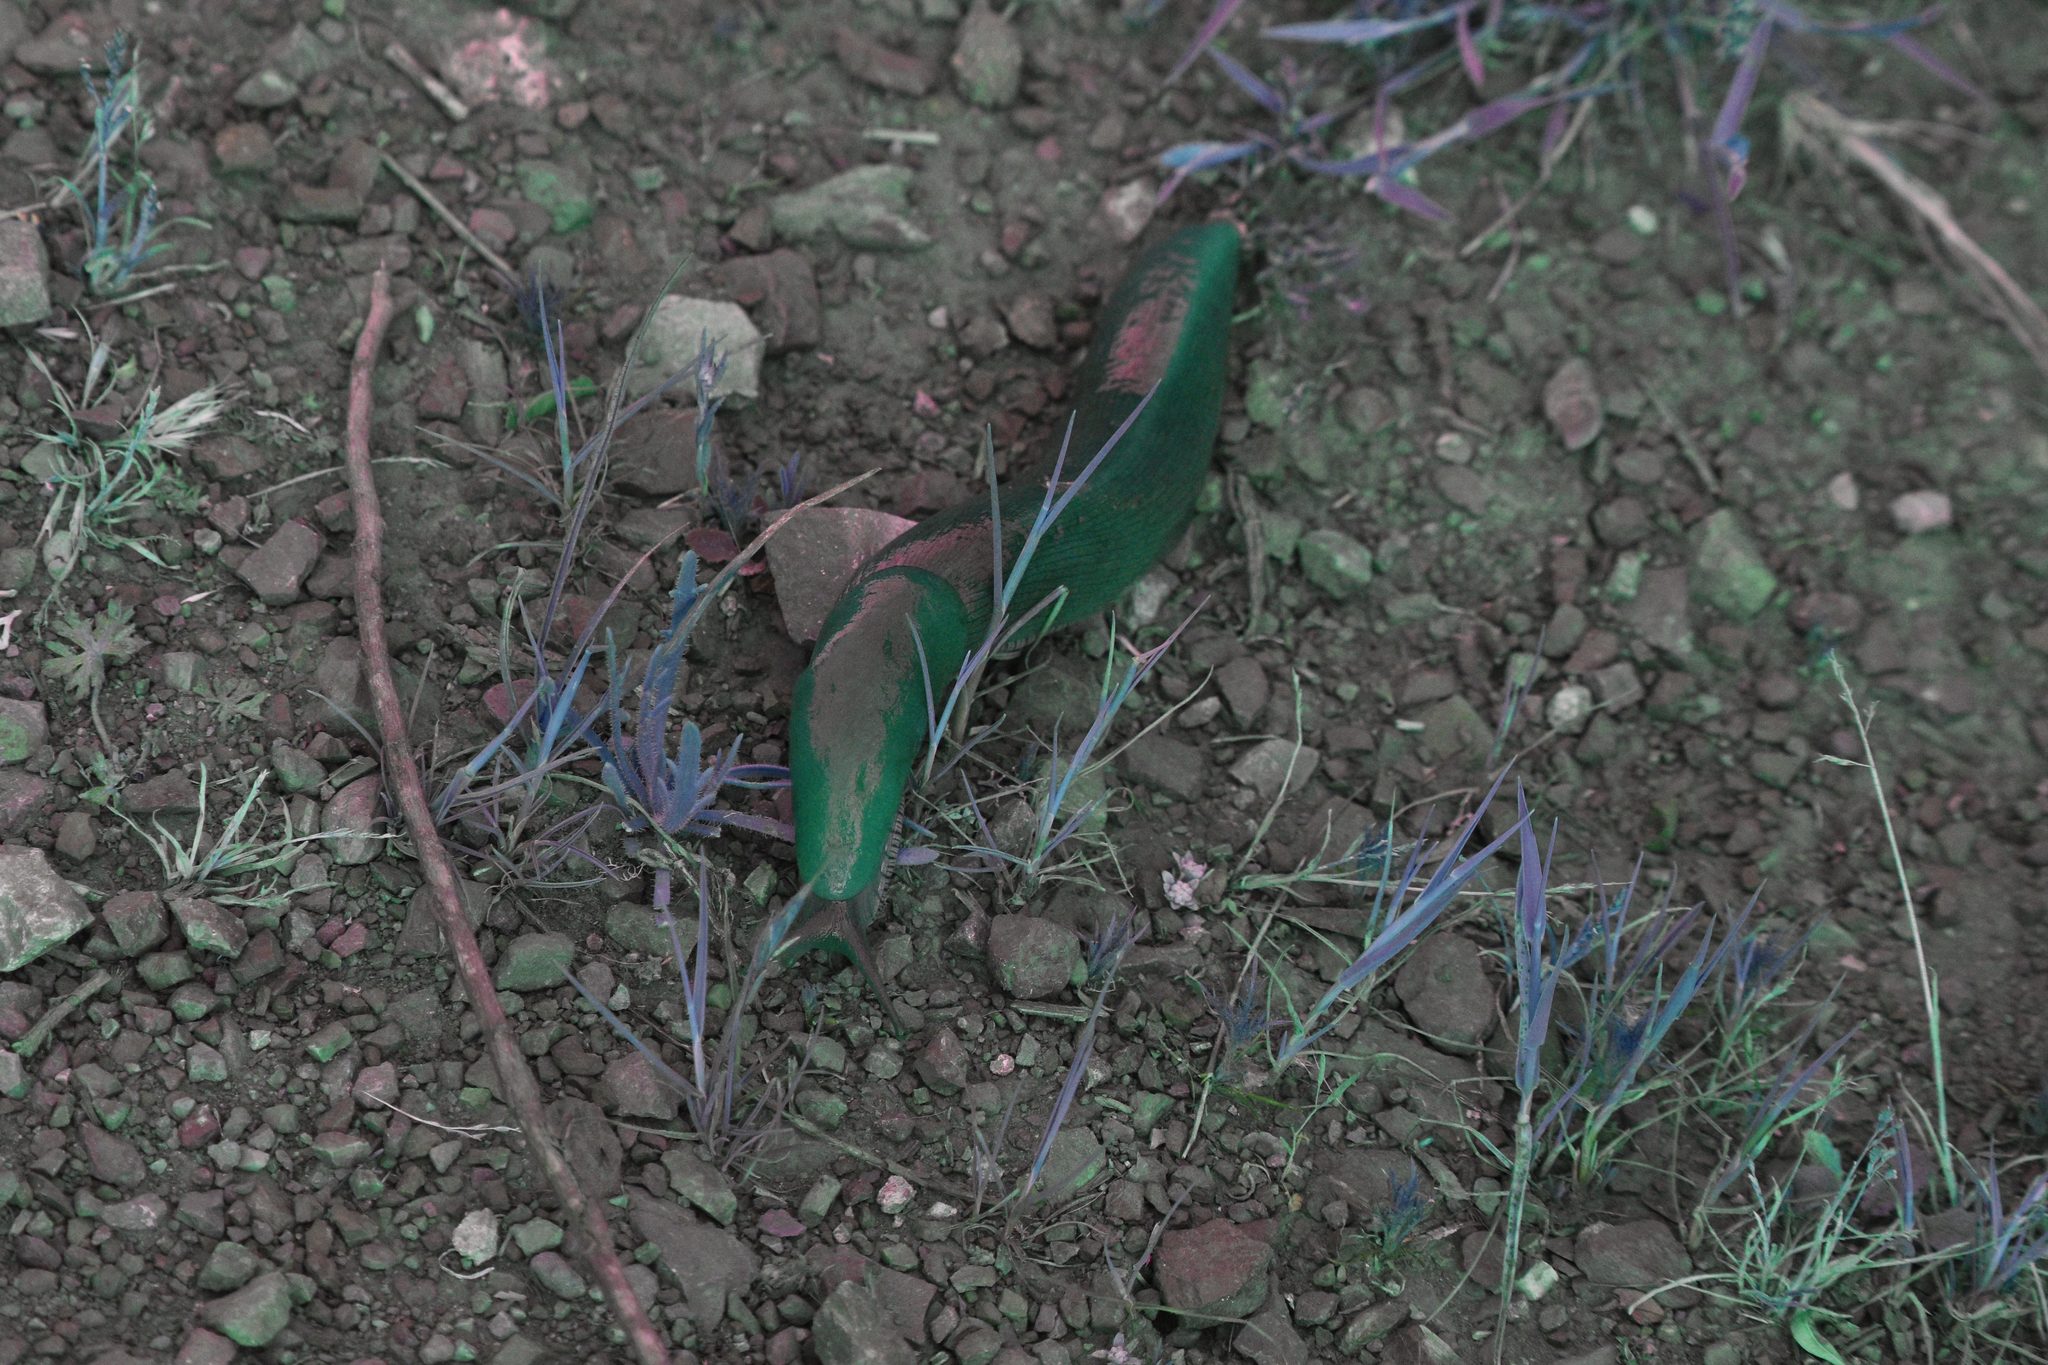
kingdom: Animalia
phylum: Mollusca
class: Gastropoda
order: Stylommatophora
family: Ariolimacidae
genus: Ariolimax
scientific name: Ariolimax buttoni
